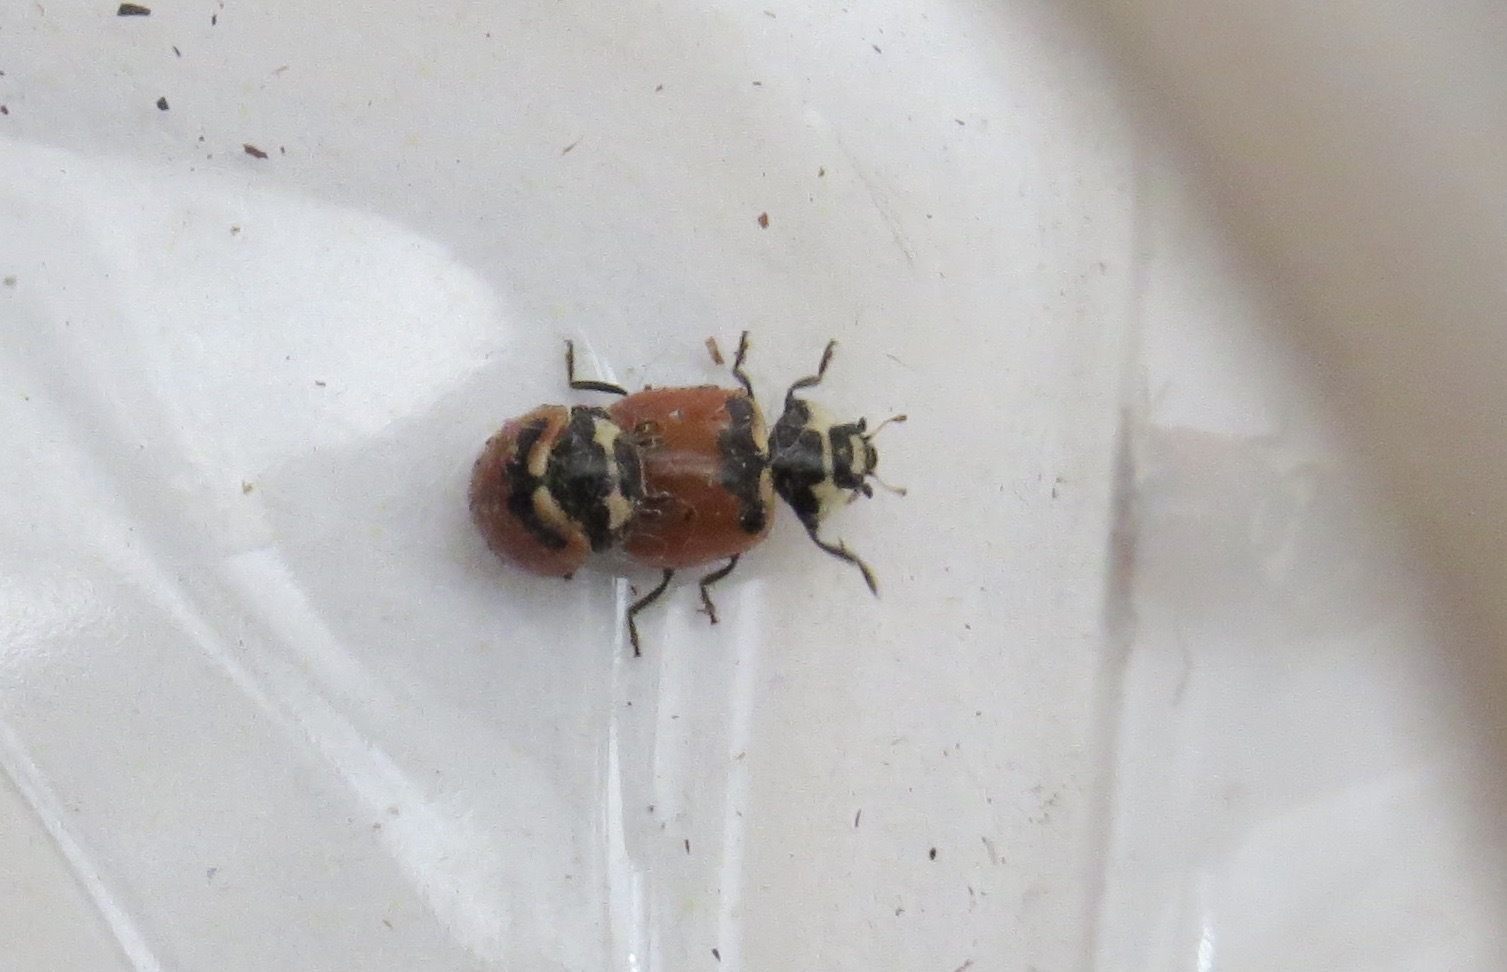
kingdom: Animalia
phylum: Arthropoda
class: Insecta
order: Coleoptera
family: Coccinellidae
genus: Coccinella
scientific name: Coccinella trifasciata
